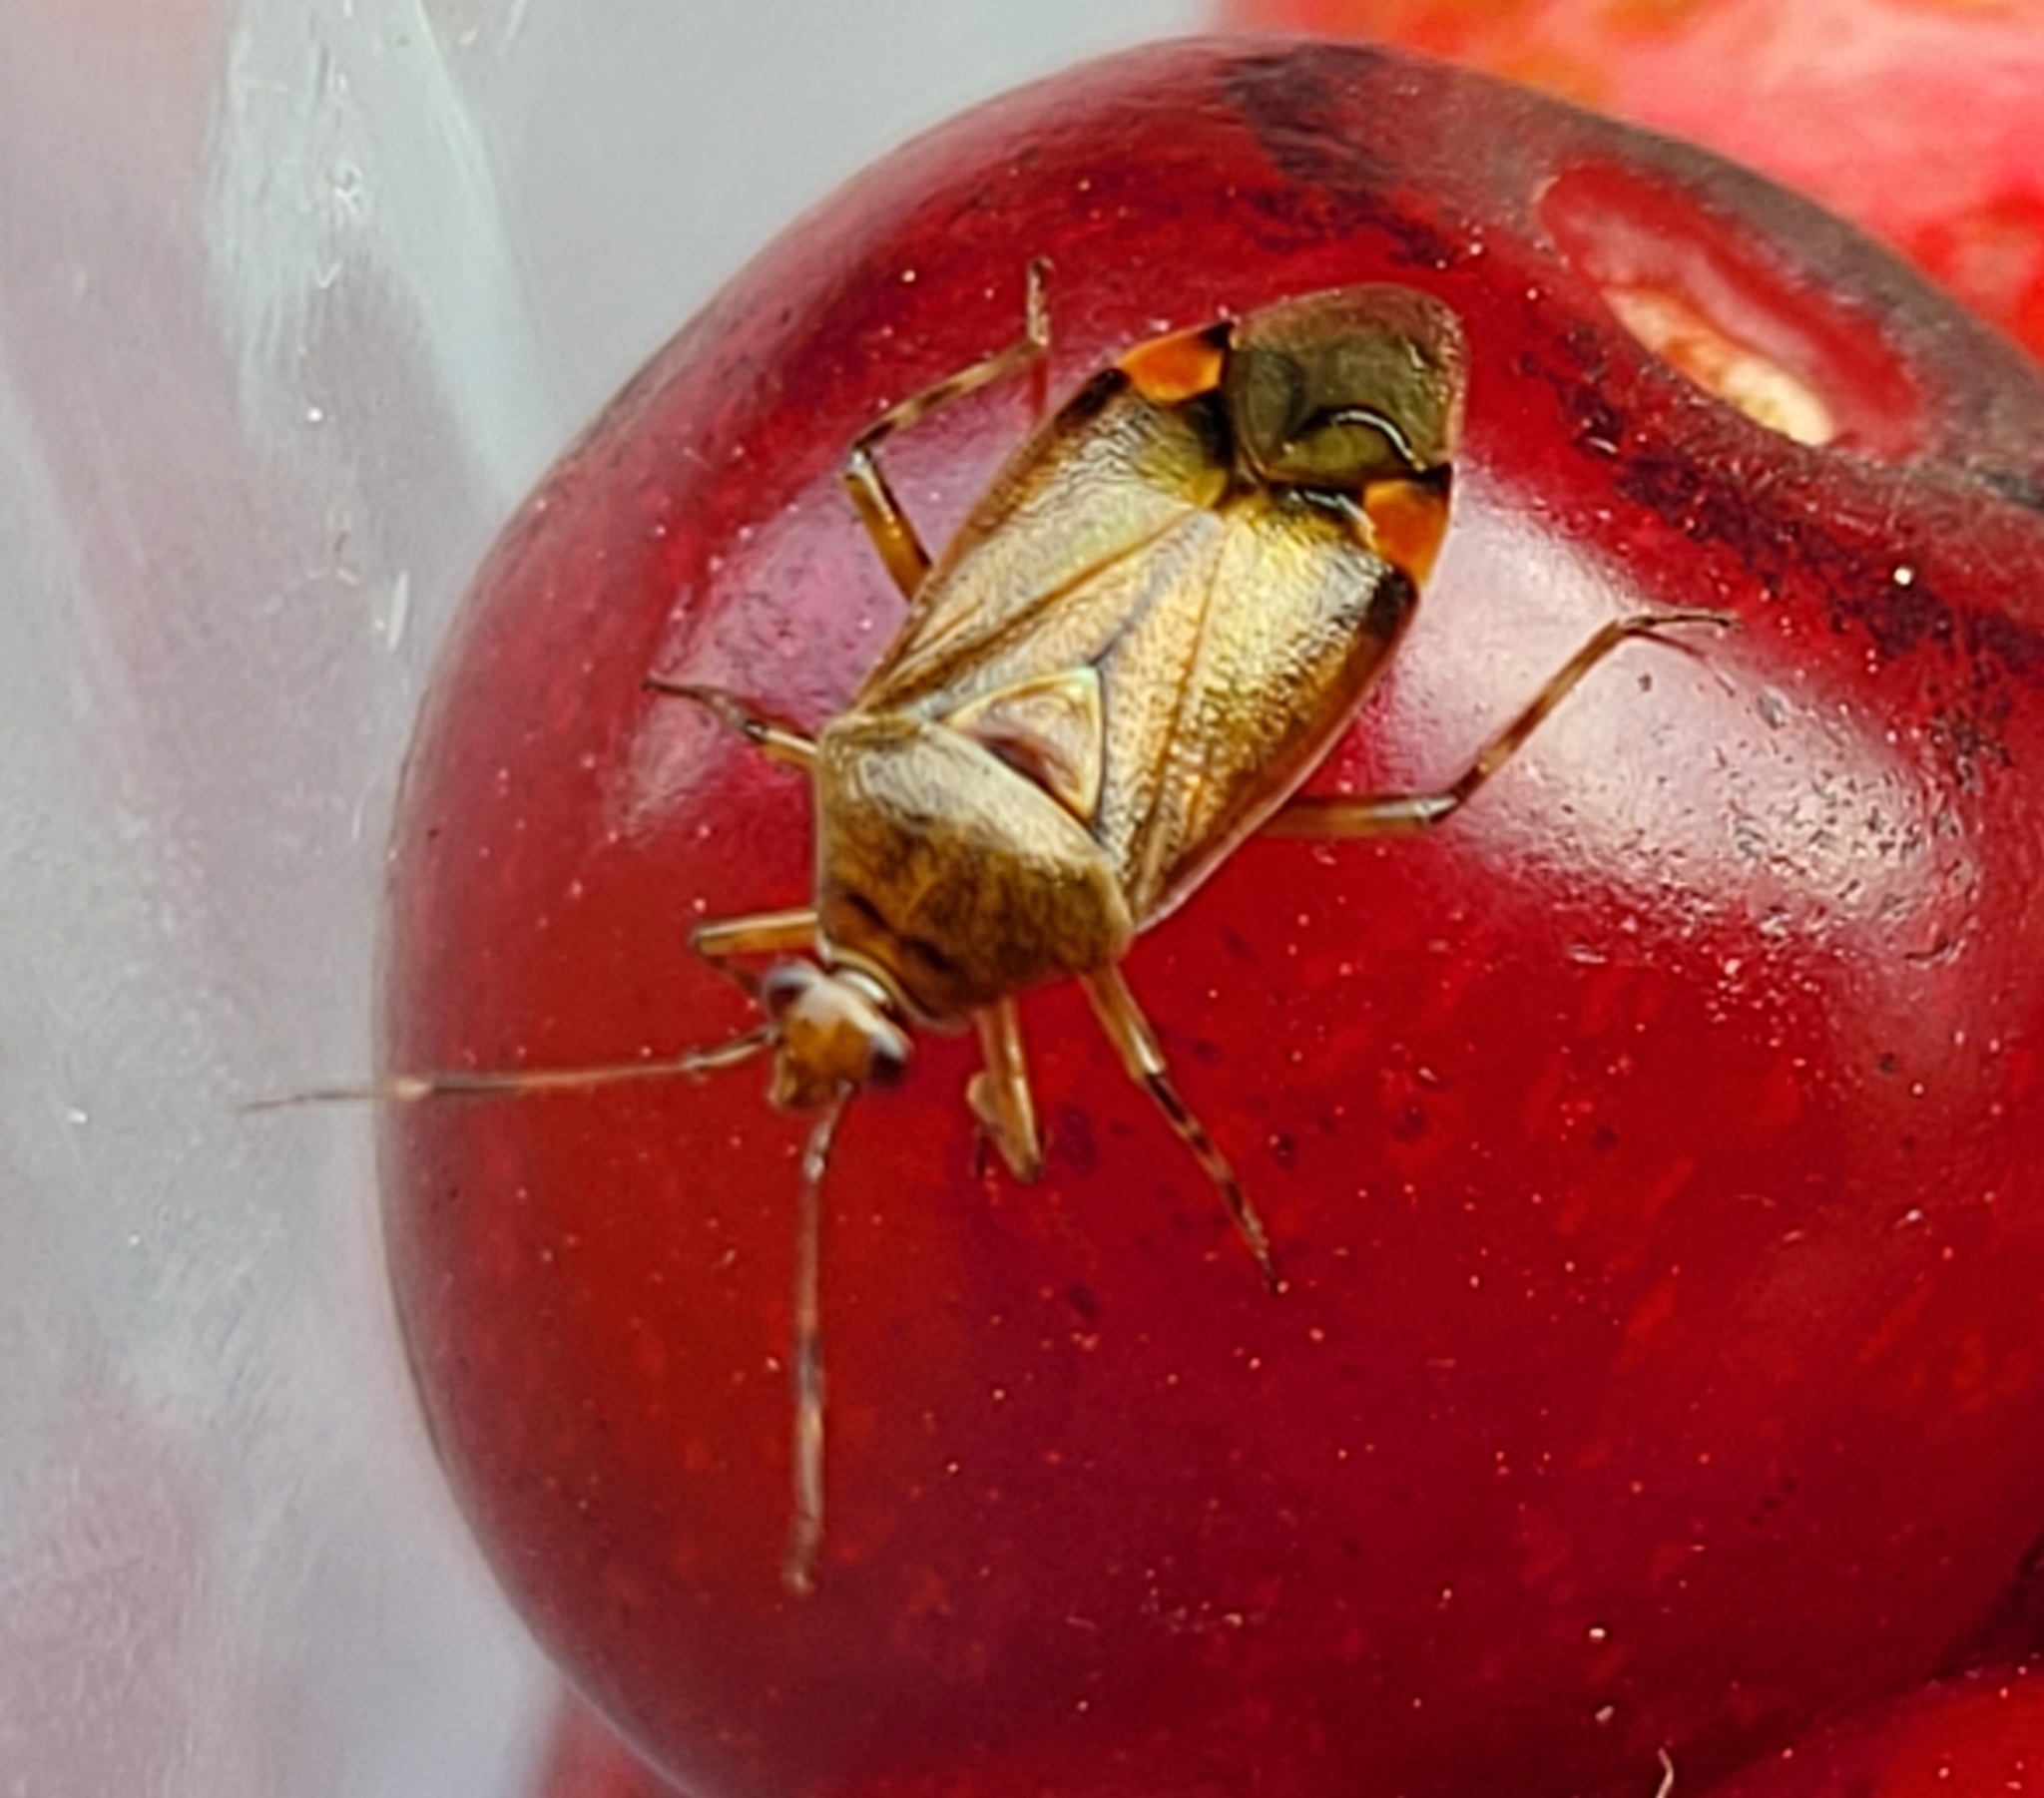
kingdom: Animalia
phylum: Arthropoda
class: Insecta
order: Hemiptera
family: Miridae
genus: Deraeocoris
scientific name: Deraeocoris flavilinea
